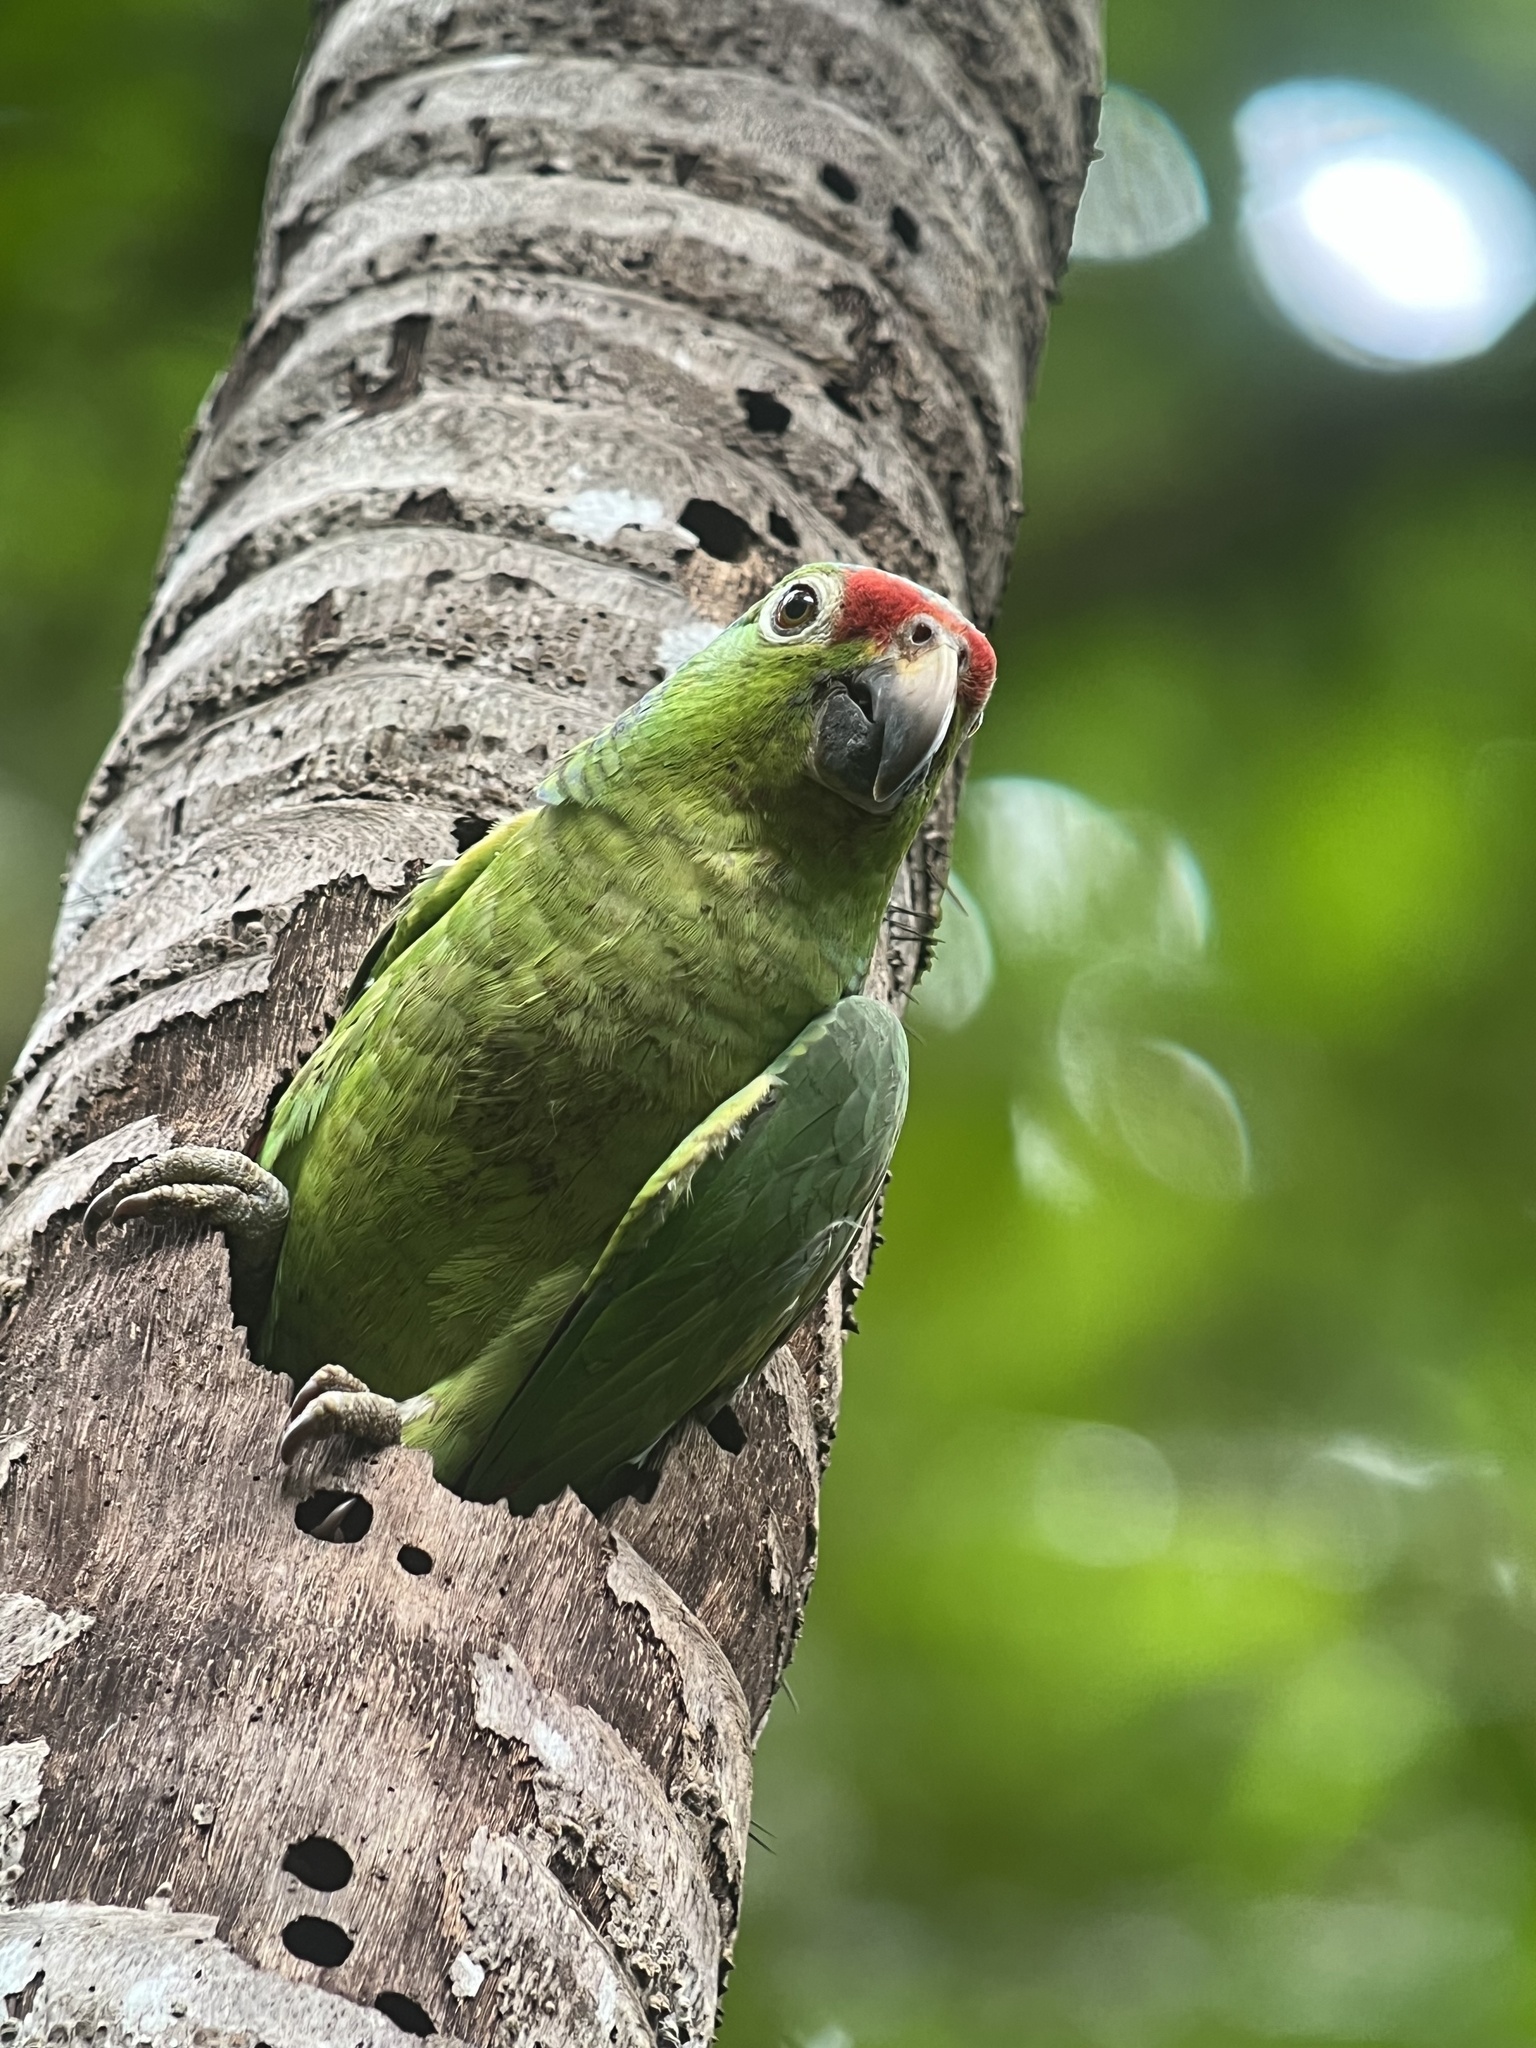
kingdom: Animalia
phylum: Chordata
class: Aves
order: Psittaciformes
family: Psittacidae
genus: Amazona
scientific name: Amazona autumnalis
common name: Red-lored amazon
